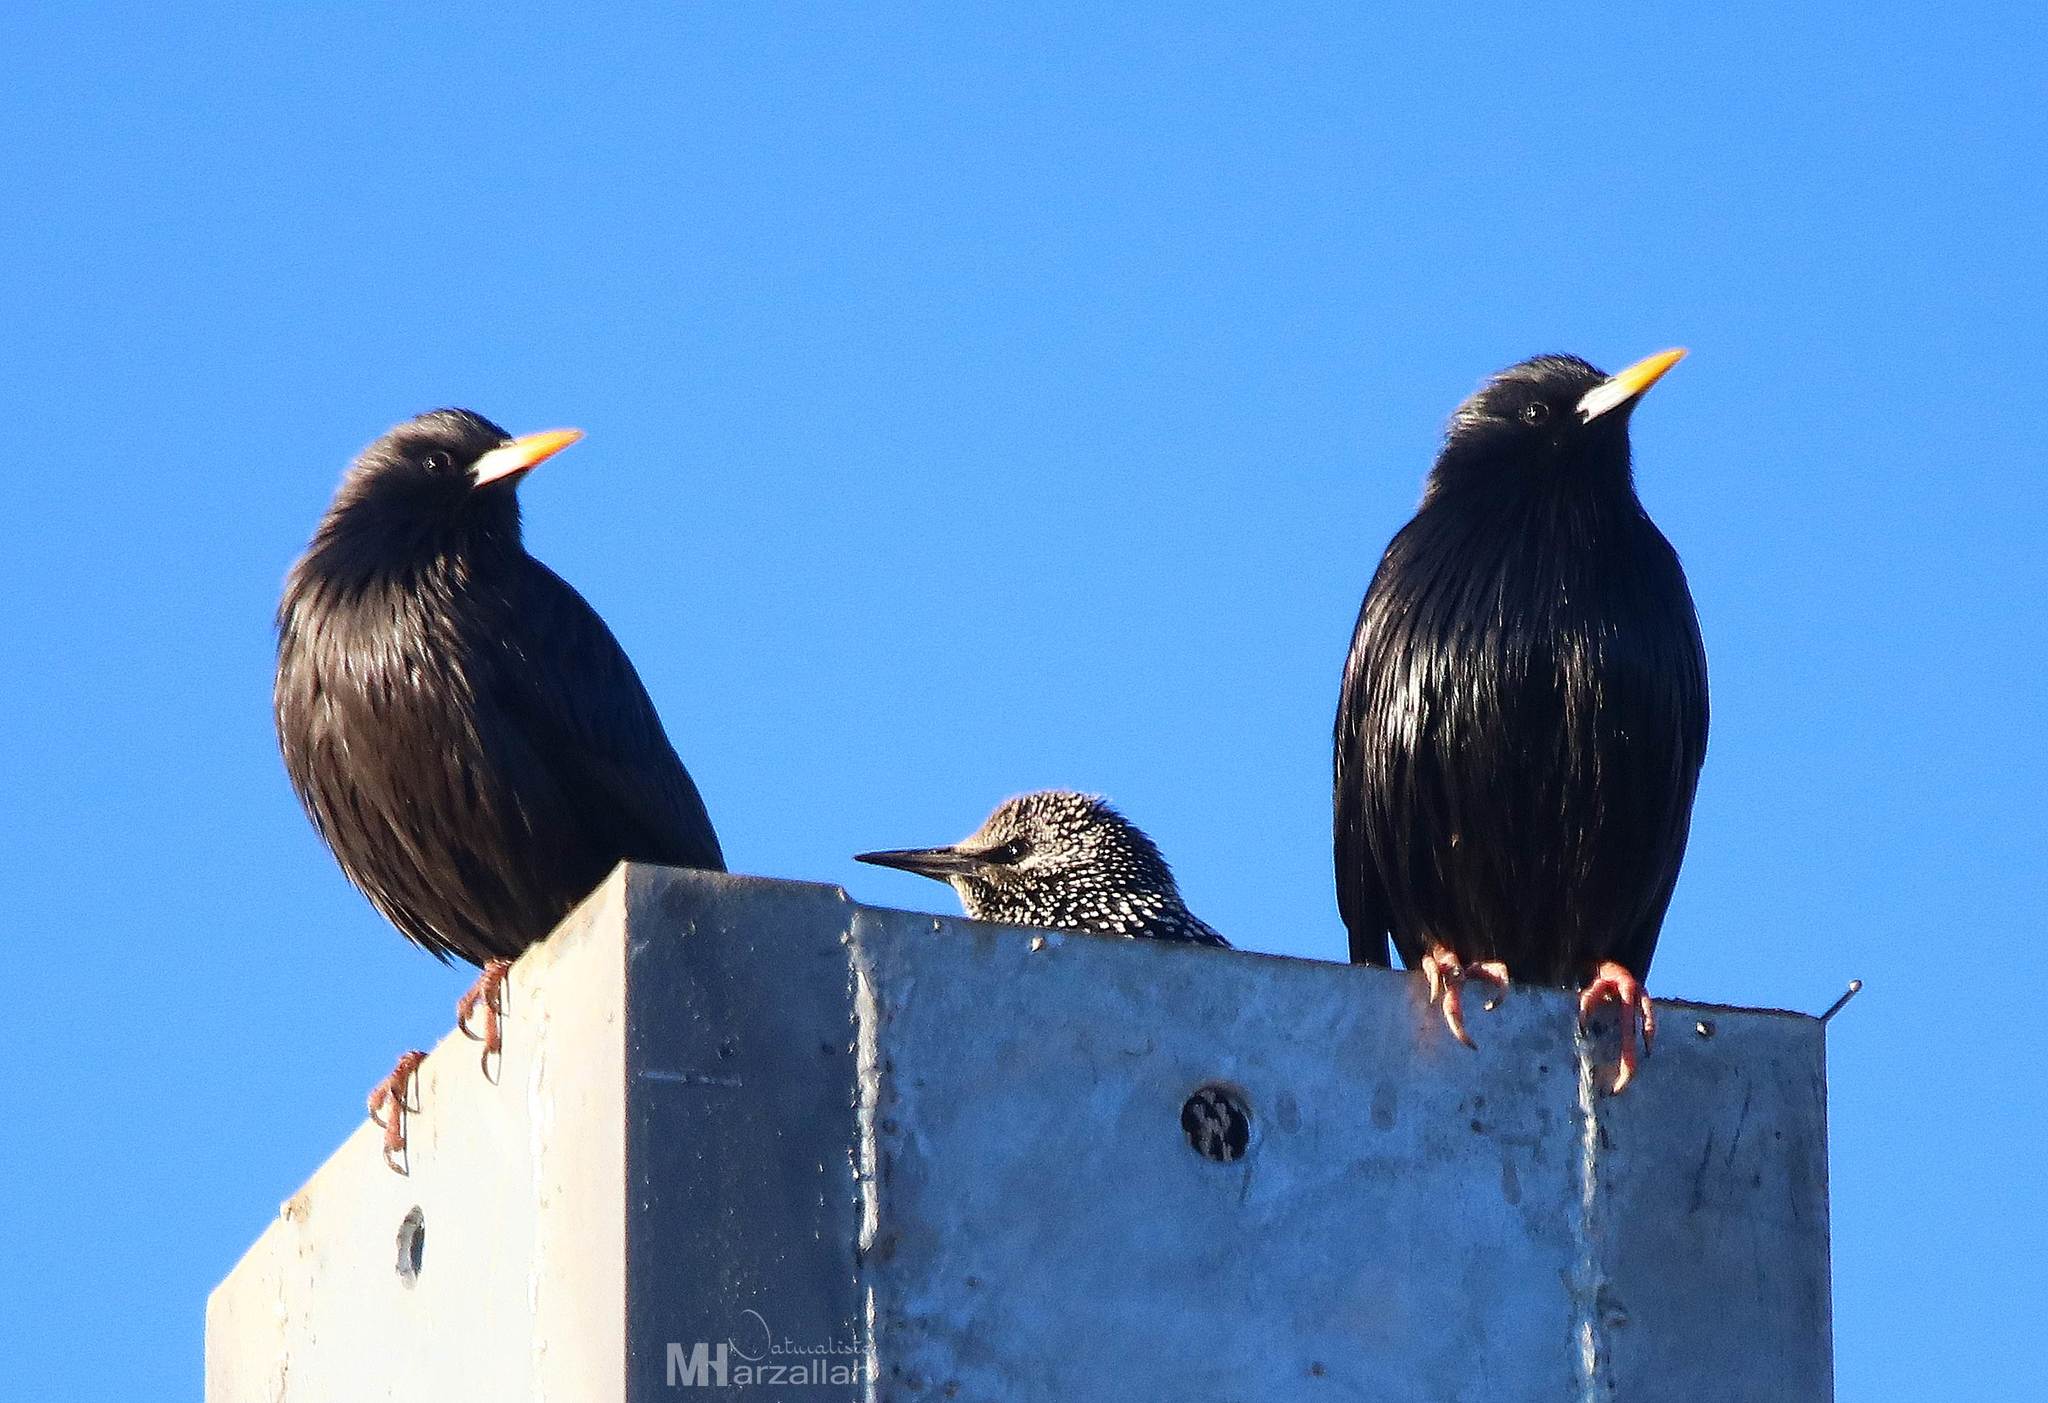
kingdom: Animalia
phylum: Chordata
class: Aves
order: Passeriformes
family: Sturnidae
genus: Sturnus
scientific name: Sturnus unicolor
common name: Spotless starling
